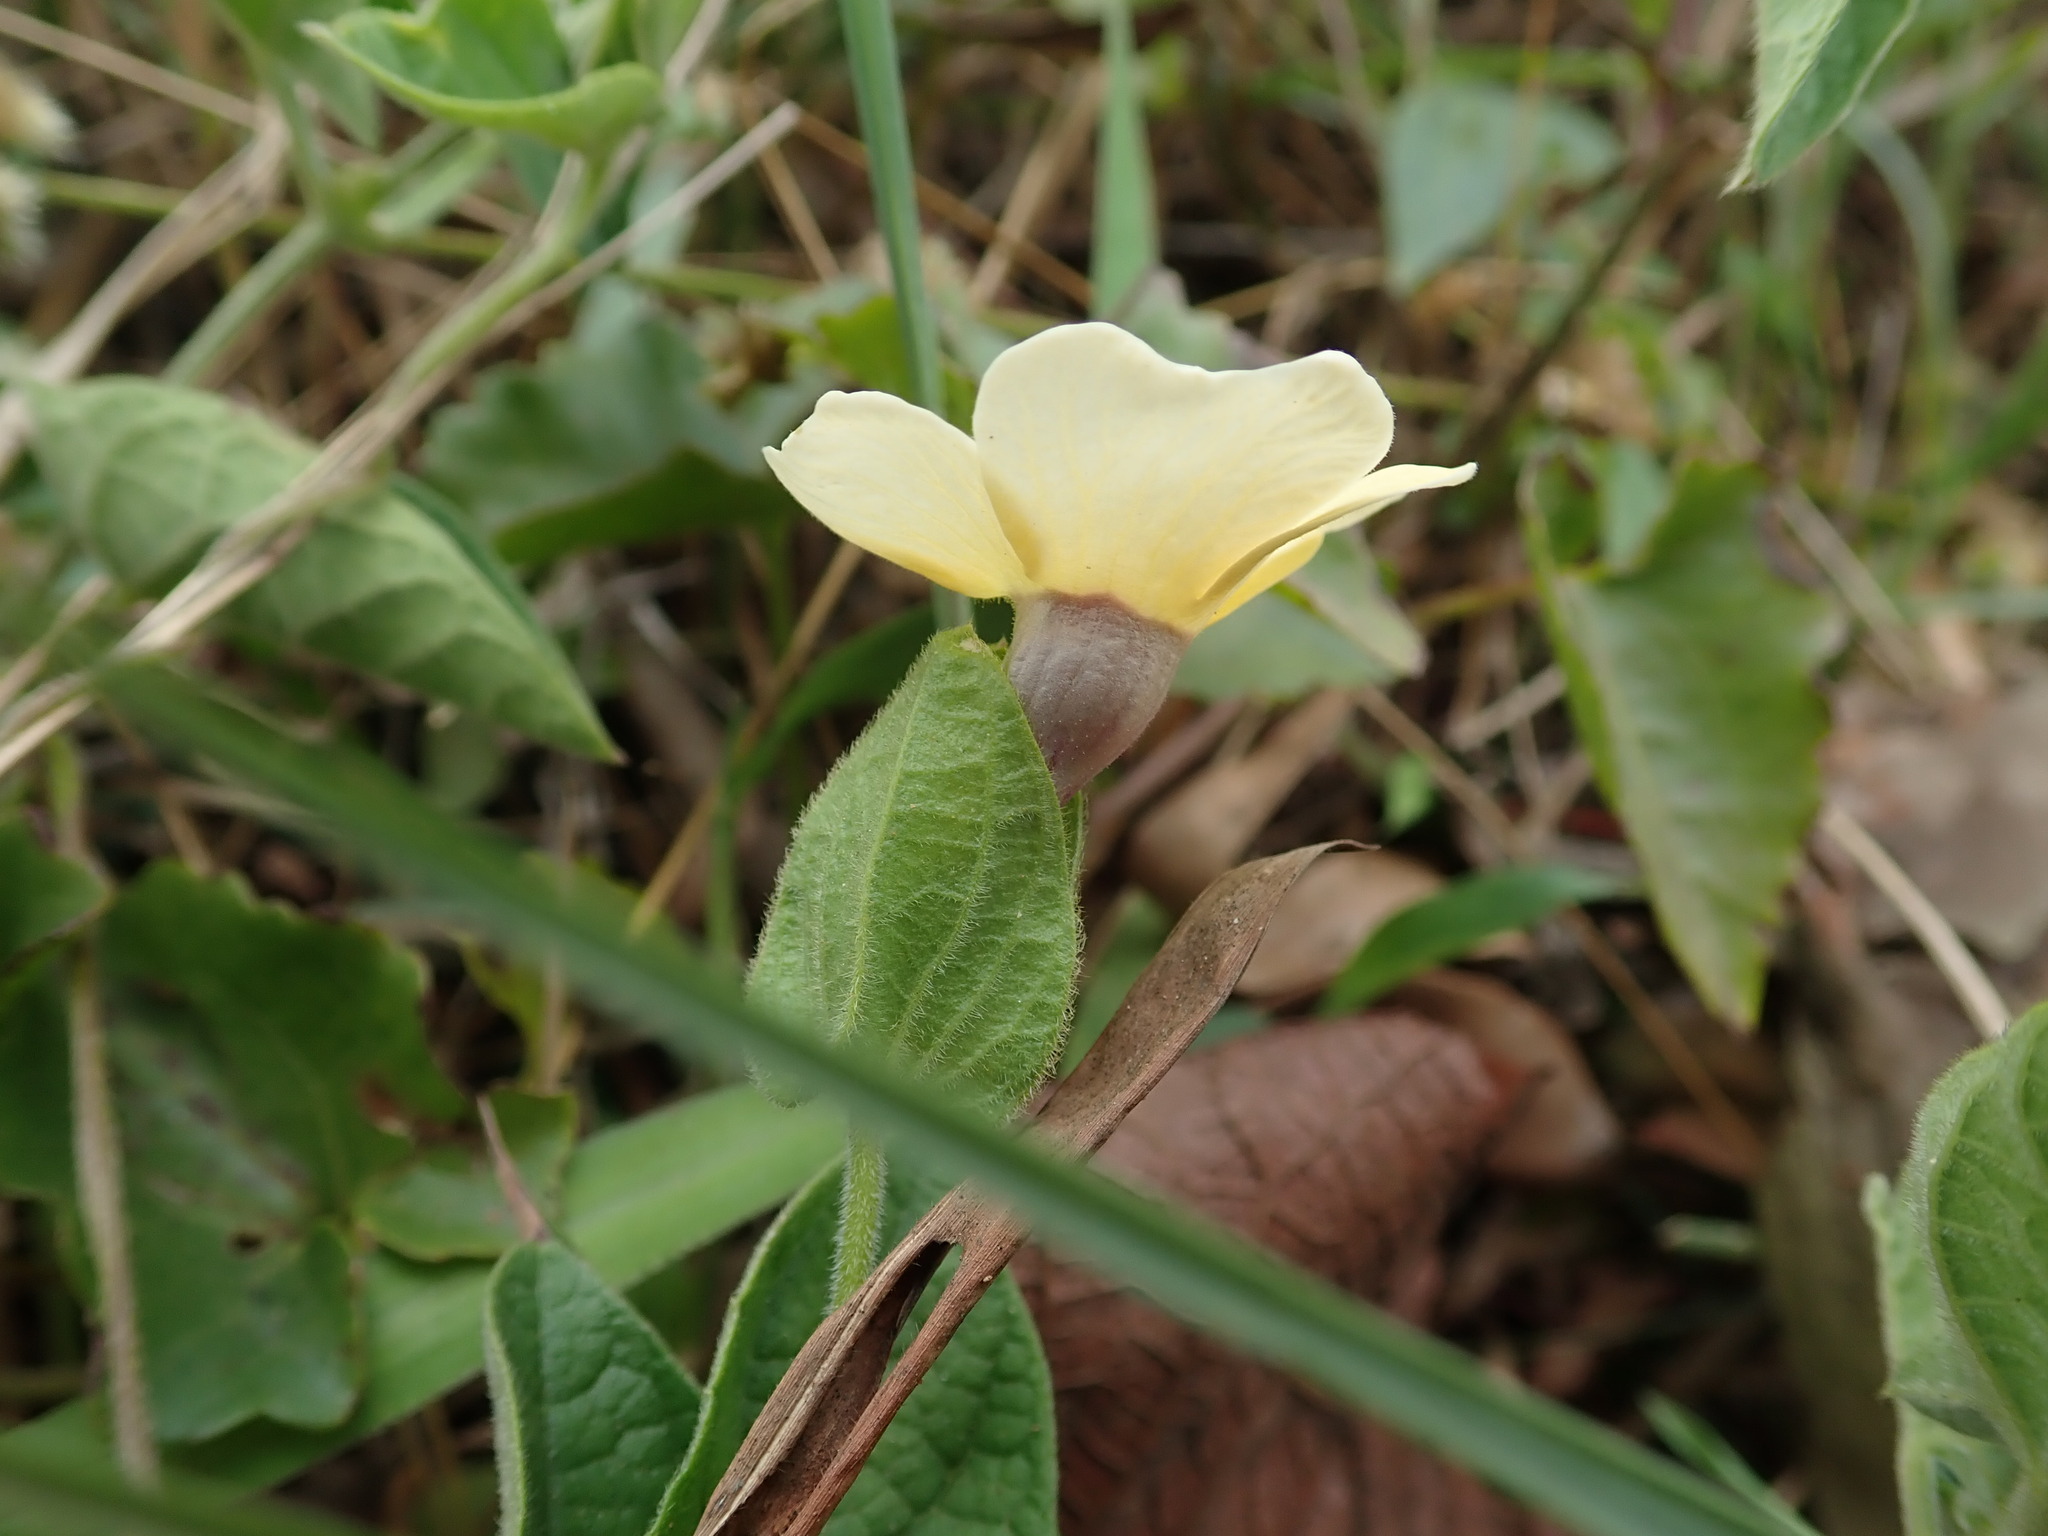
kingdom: Plantae
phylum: Tracheophyta
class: Magnoliopsida
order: Lamiales
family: Acanthaceae
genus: Thunbergia
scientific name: Thunbergia alata
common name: Blackeyed susan vine
